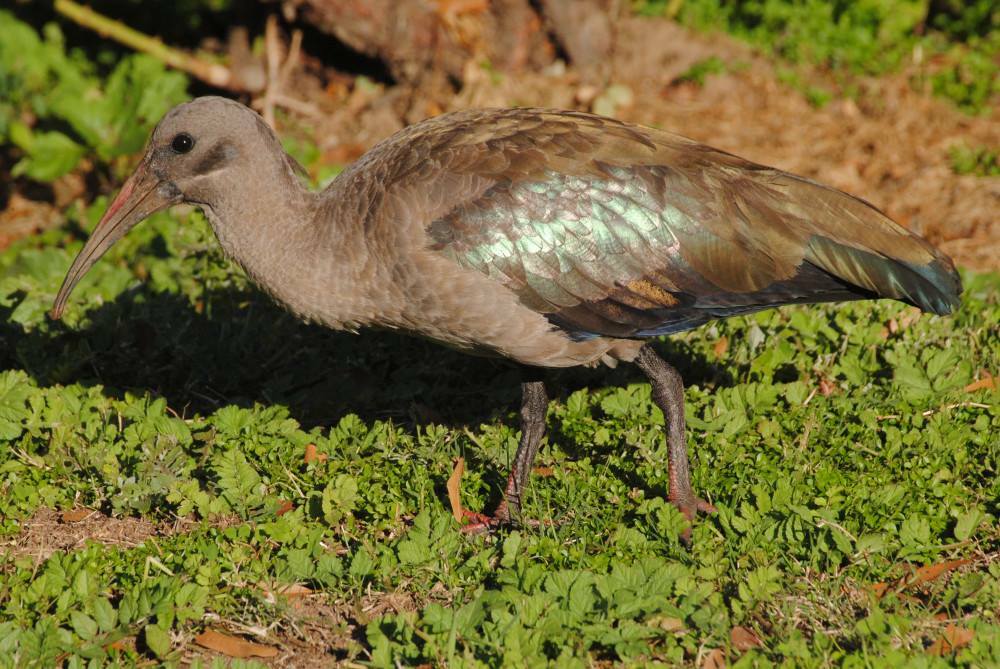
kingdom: Animalia
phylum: Chordata
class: Aves
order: Pelecaniformes
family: Threskiornithidae
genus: Bostrychia
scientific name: Bostrychia hagedash
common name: Hadada ibis
